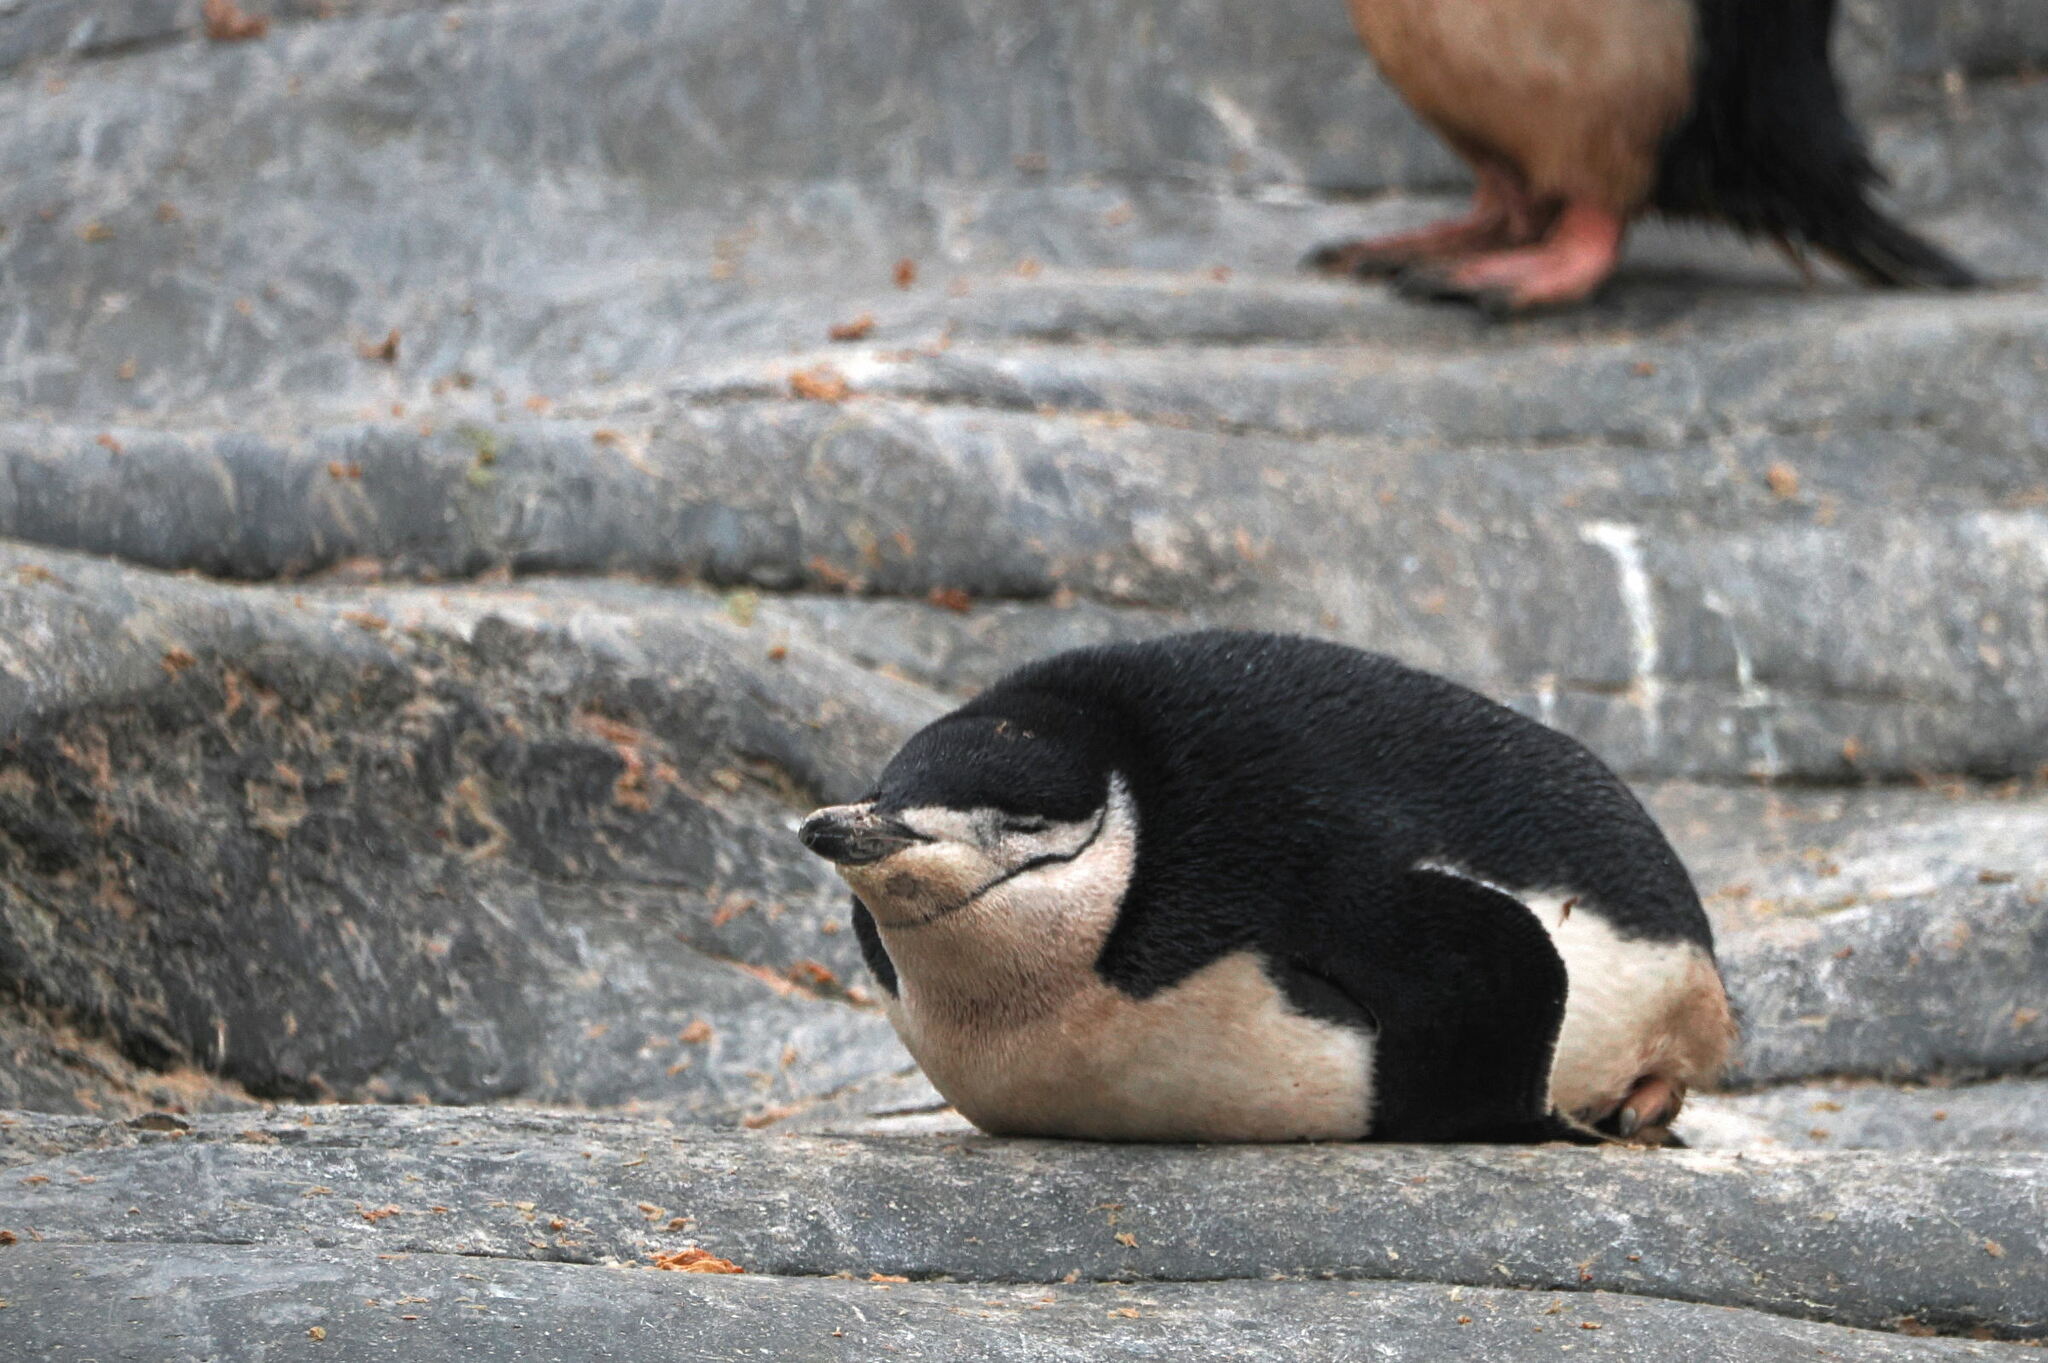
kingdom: Animalia
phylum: Chordata
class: Aves
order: Sphenisciformes
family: Spheniscidae
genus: Pygoscelis
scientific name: Pygoscelis antarcticus
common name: Chinstrap penguin
